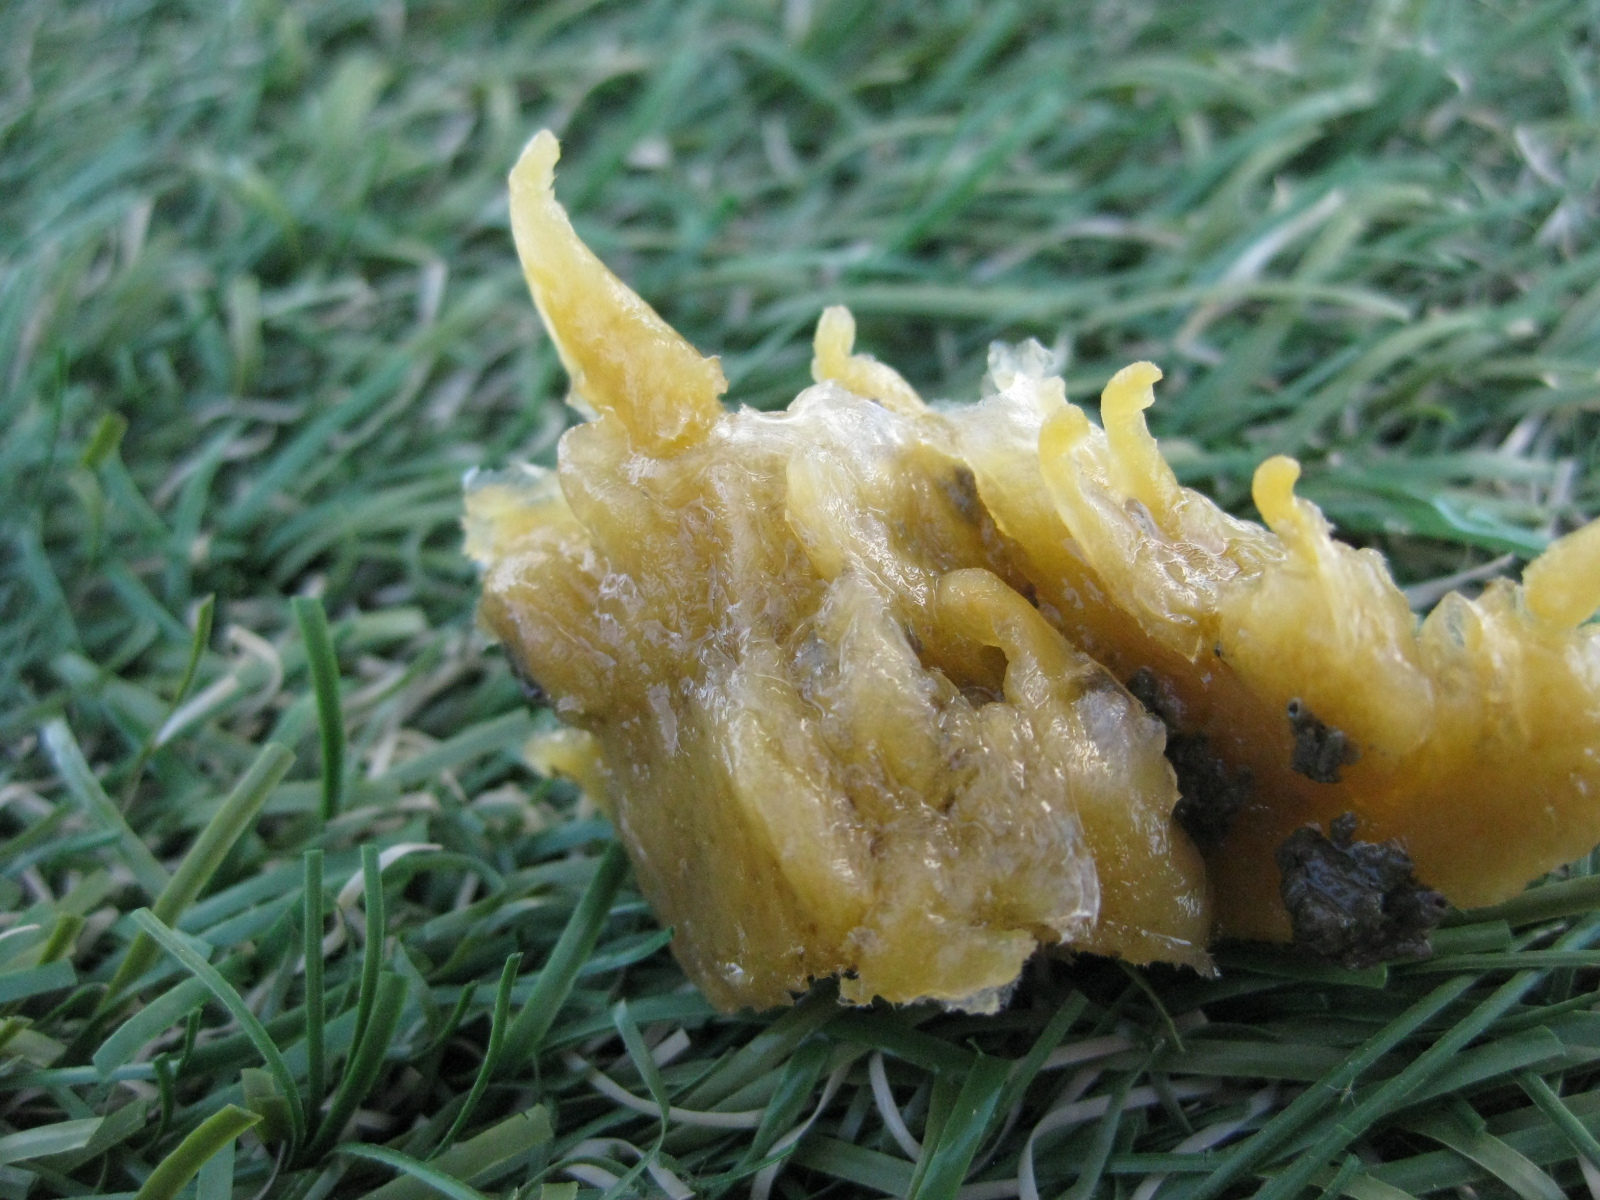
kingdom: Animalia
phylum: Porifera
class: Demospongiae
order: Suberitida
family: Halichondriidae
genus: Ciocalypta
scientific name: Ciocalypta penicillus
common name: Brush sponge
